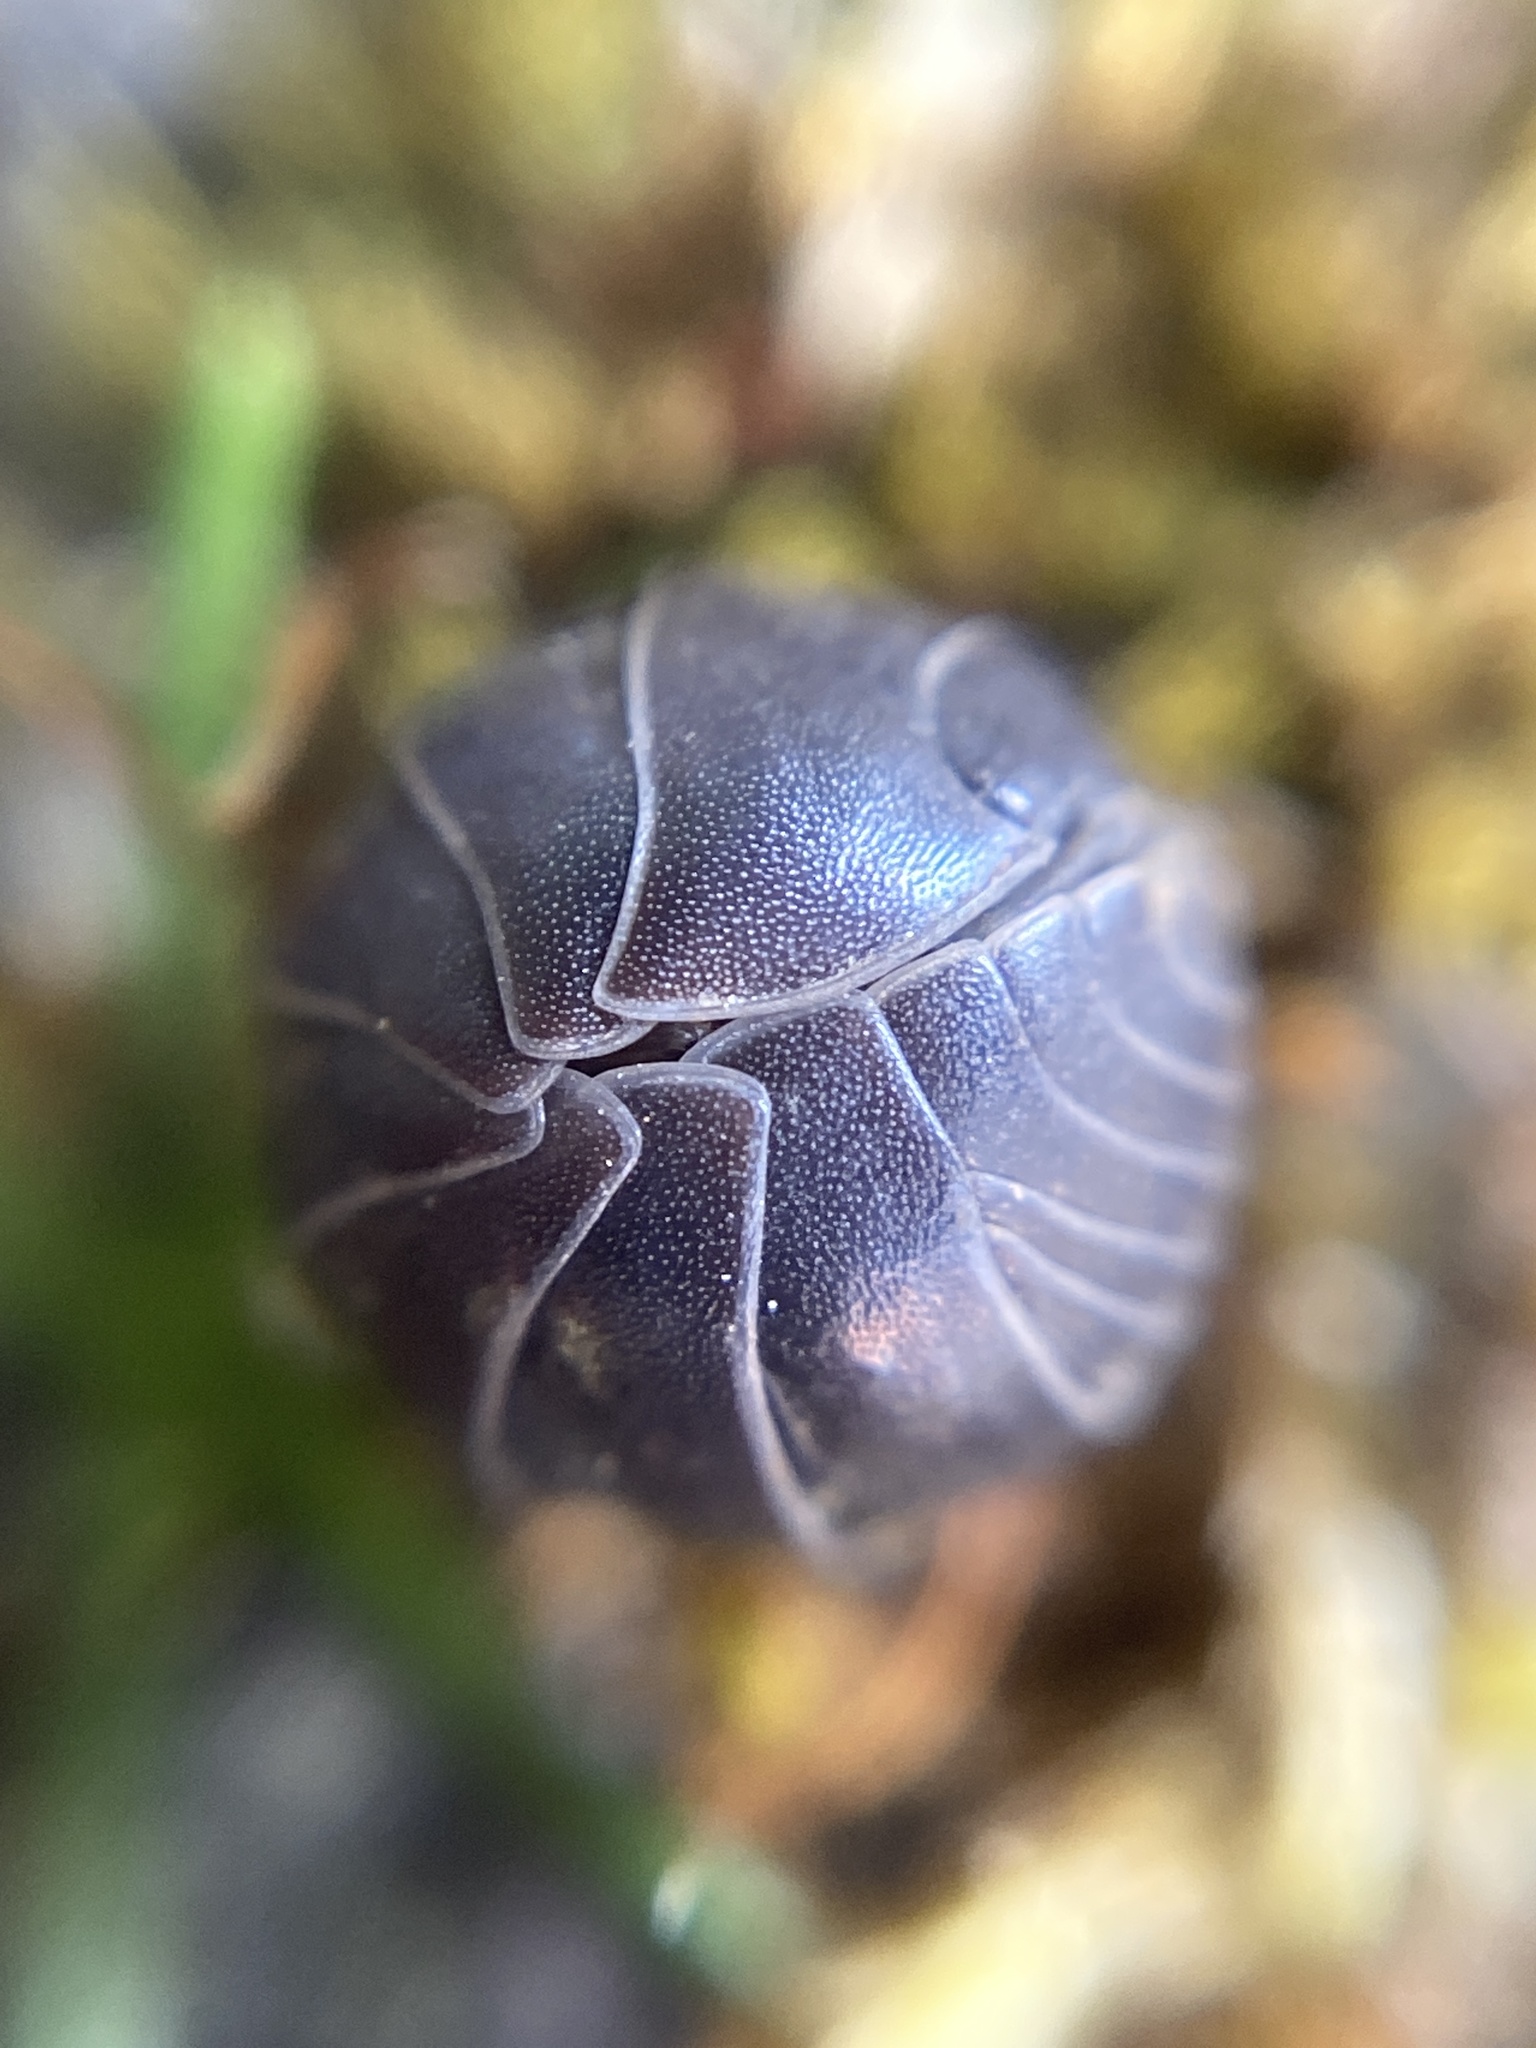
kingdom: Animalia
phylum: Arthropoda
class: Malacostraca
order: Isopoda
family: Armadillidiidae
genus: Armadillidium
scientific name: Armadillidium vulgare
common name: Common pill woodlouse
